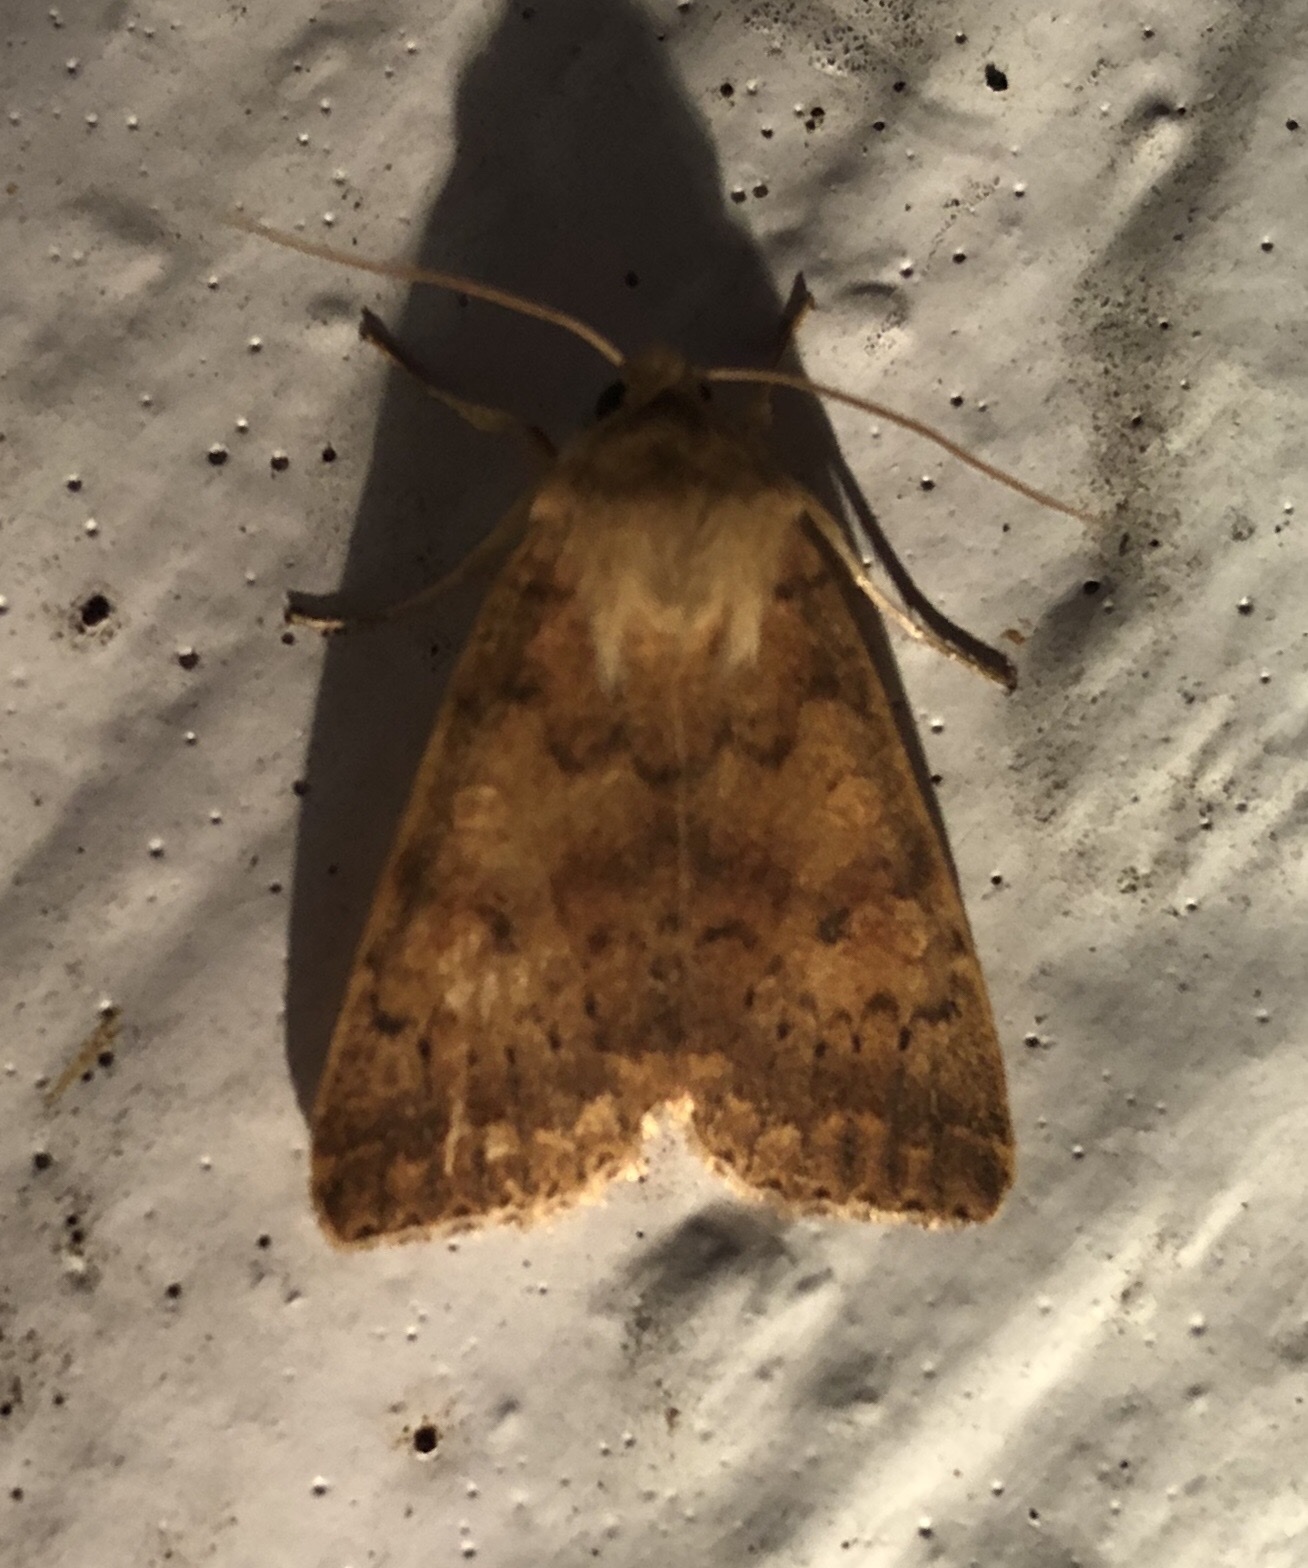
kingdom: Animalia
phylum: Arthropoda
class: Insecta
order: Lepidoptera
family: Noctuidae
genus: Agrochola
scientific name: Agrochola bicolorago
